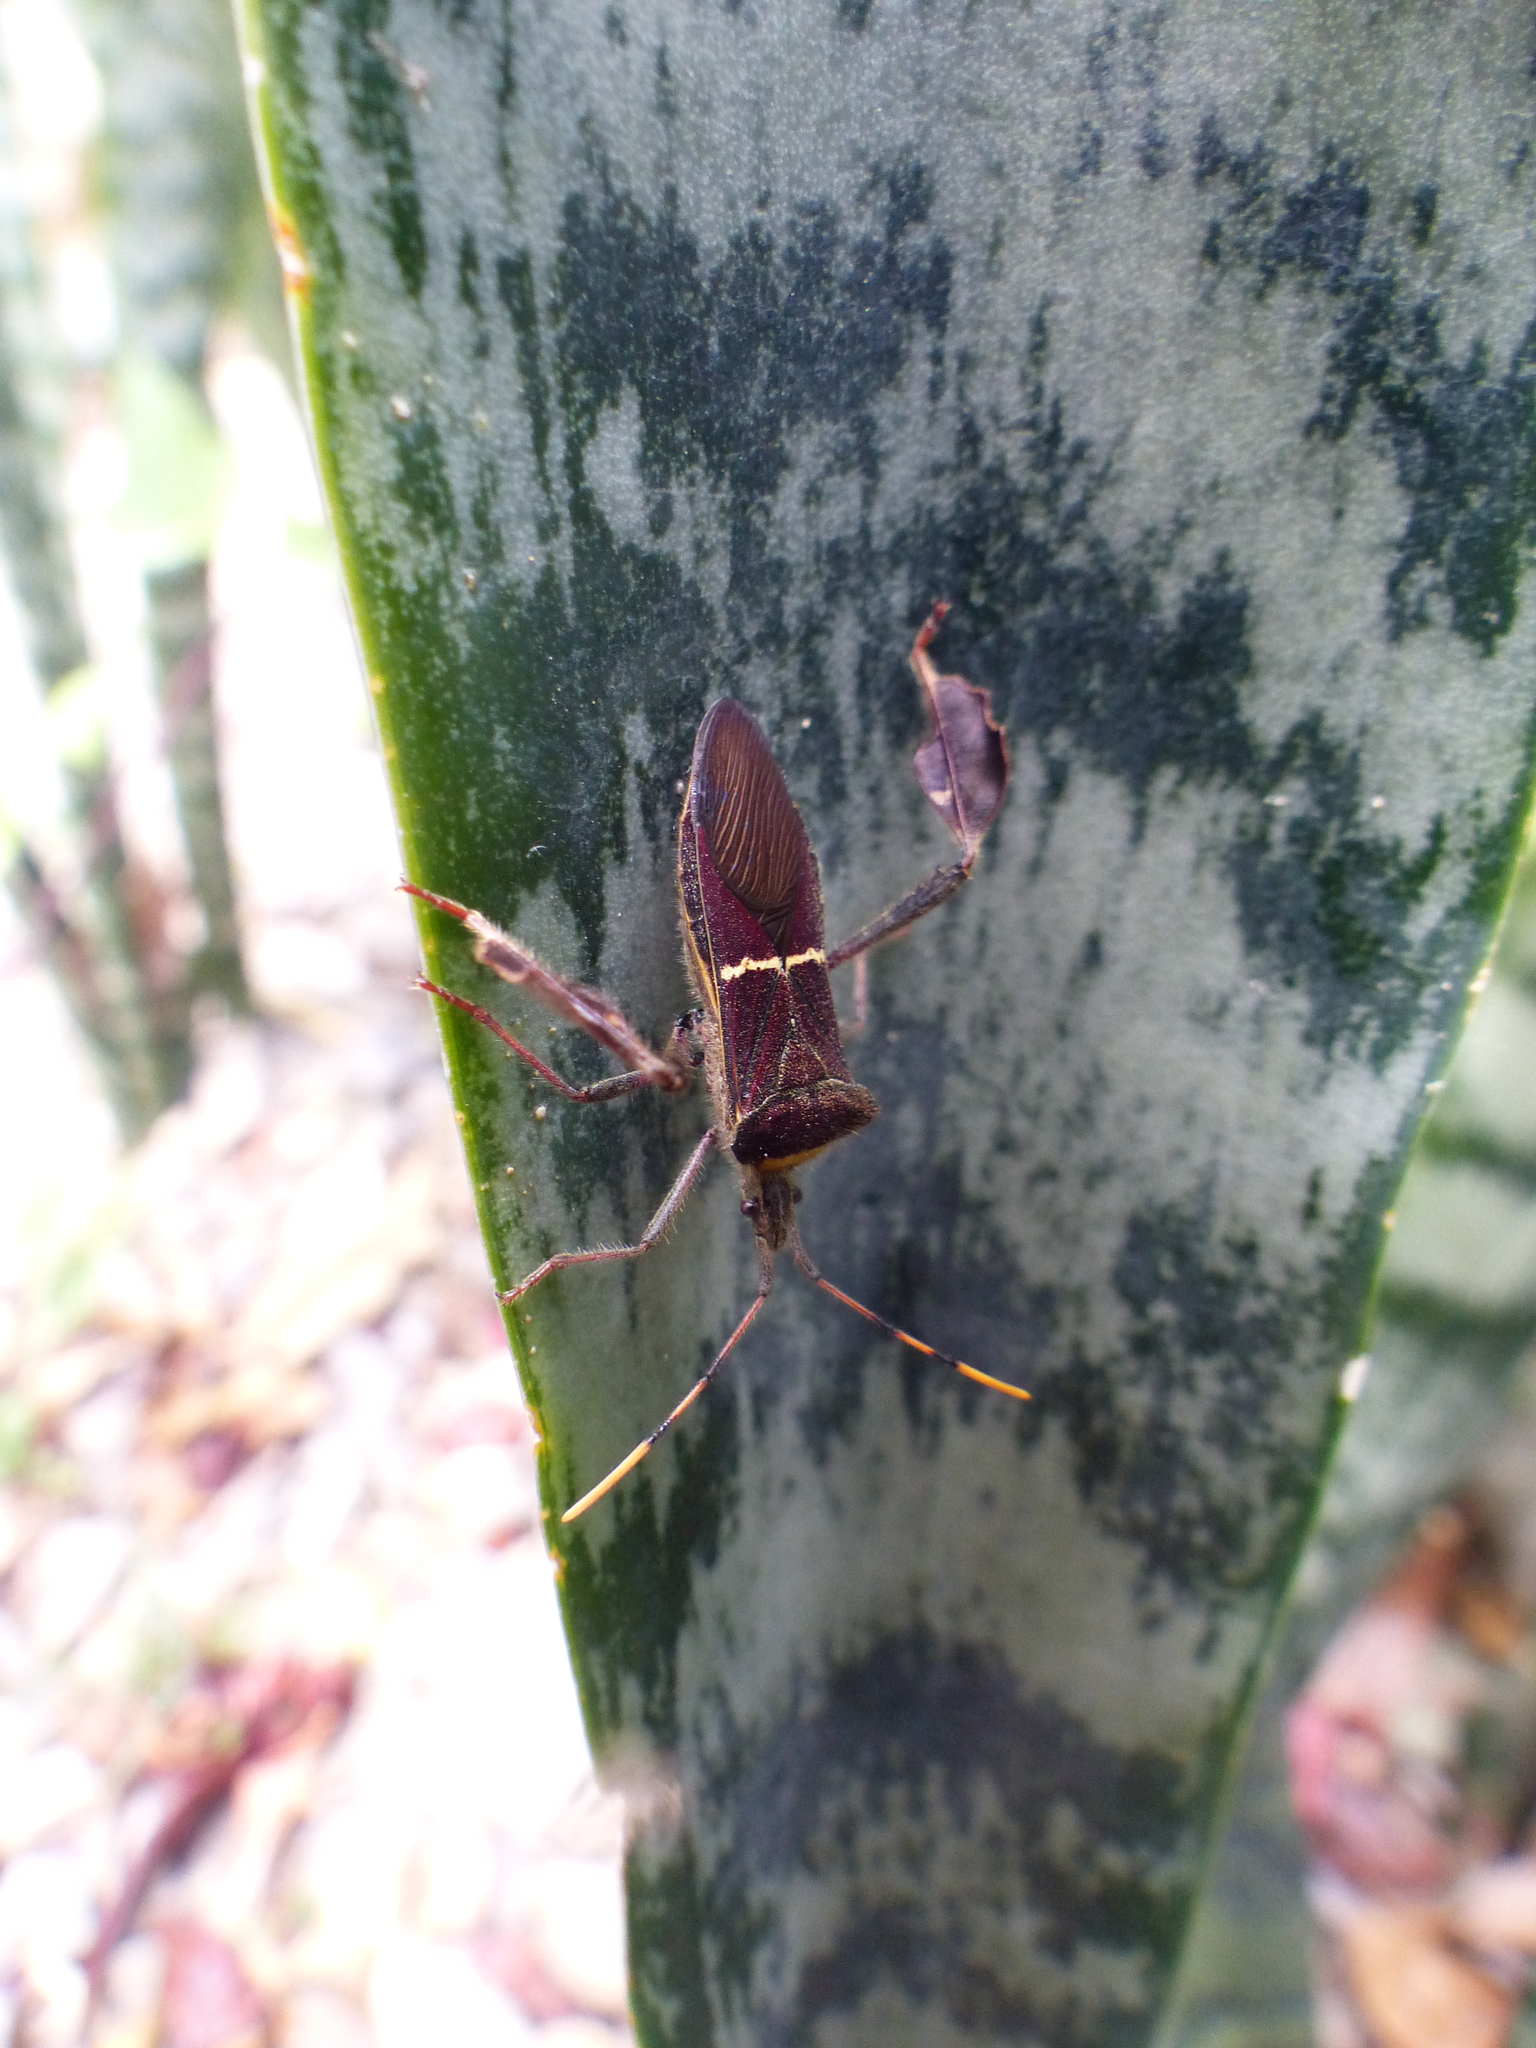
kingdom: Animalia
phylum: Arthropoda
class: Insecta
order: Hemiptera
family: Coreidae
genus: Leptoglossus
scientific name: Leptoglossus macrophyllus
